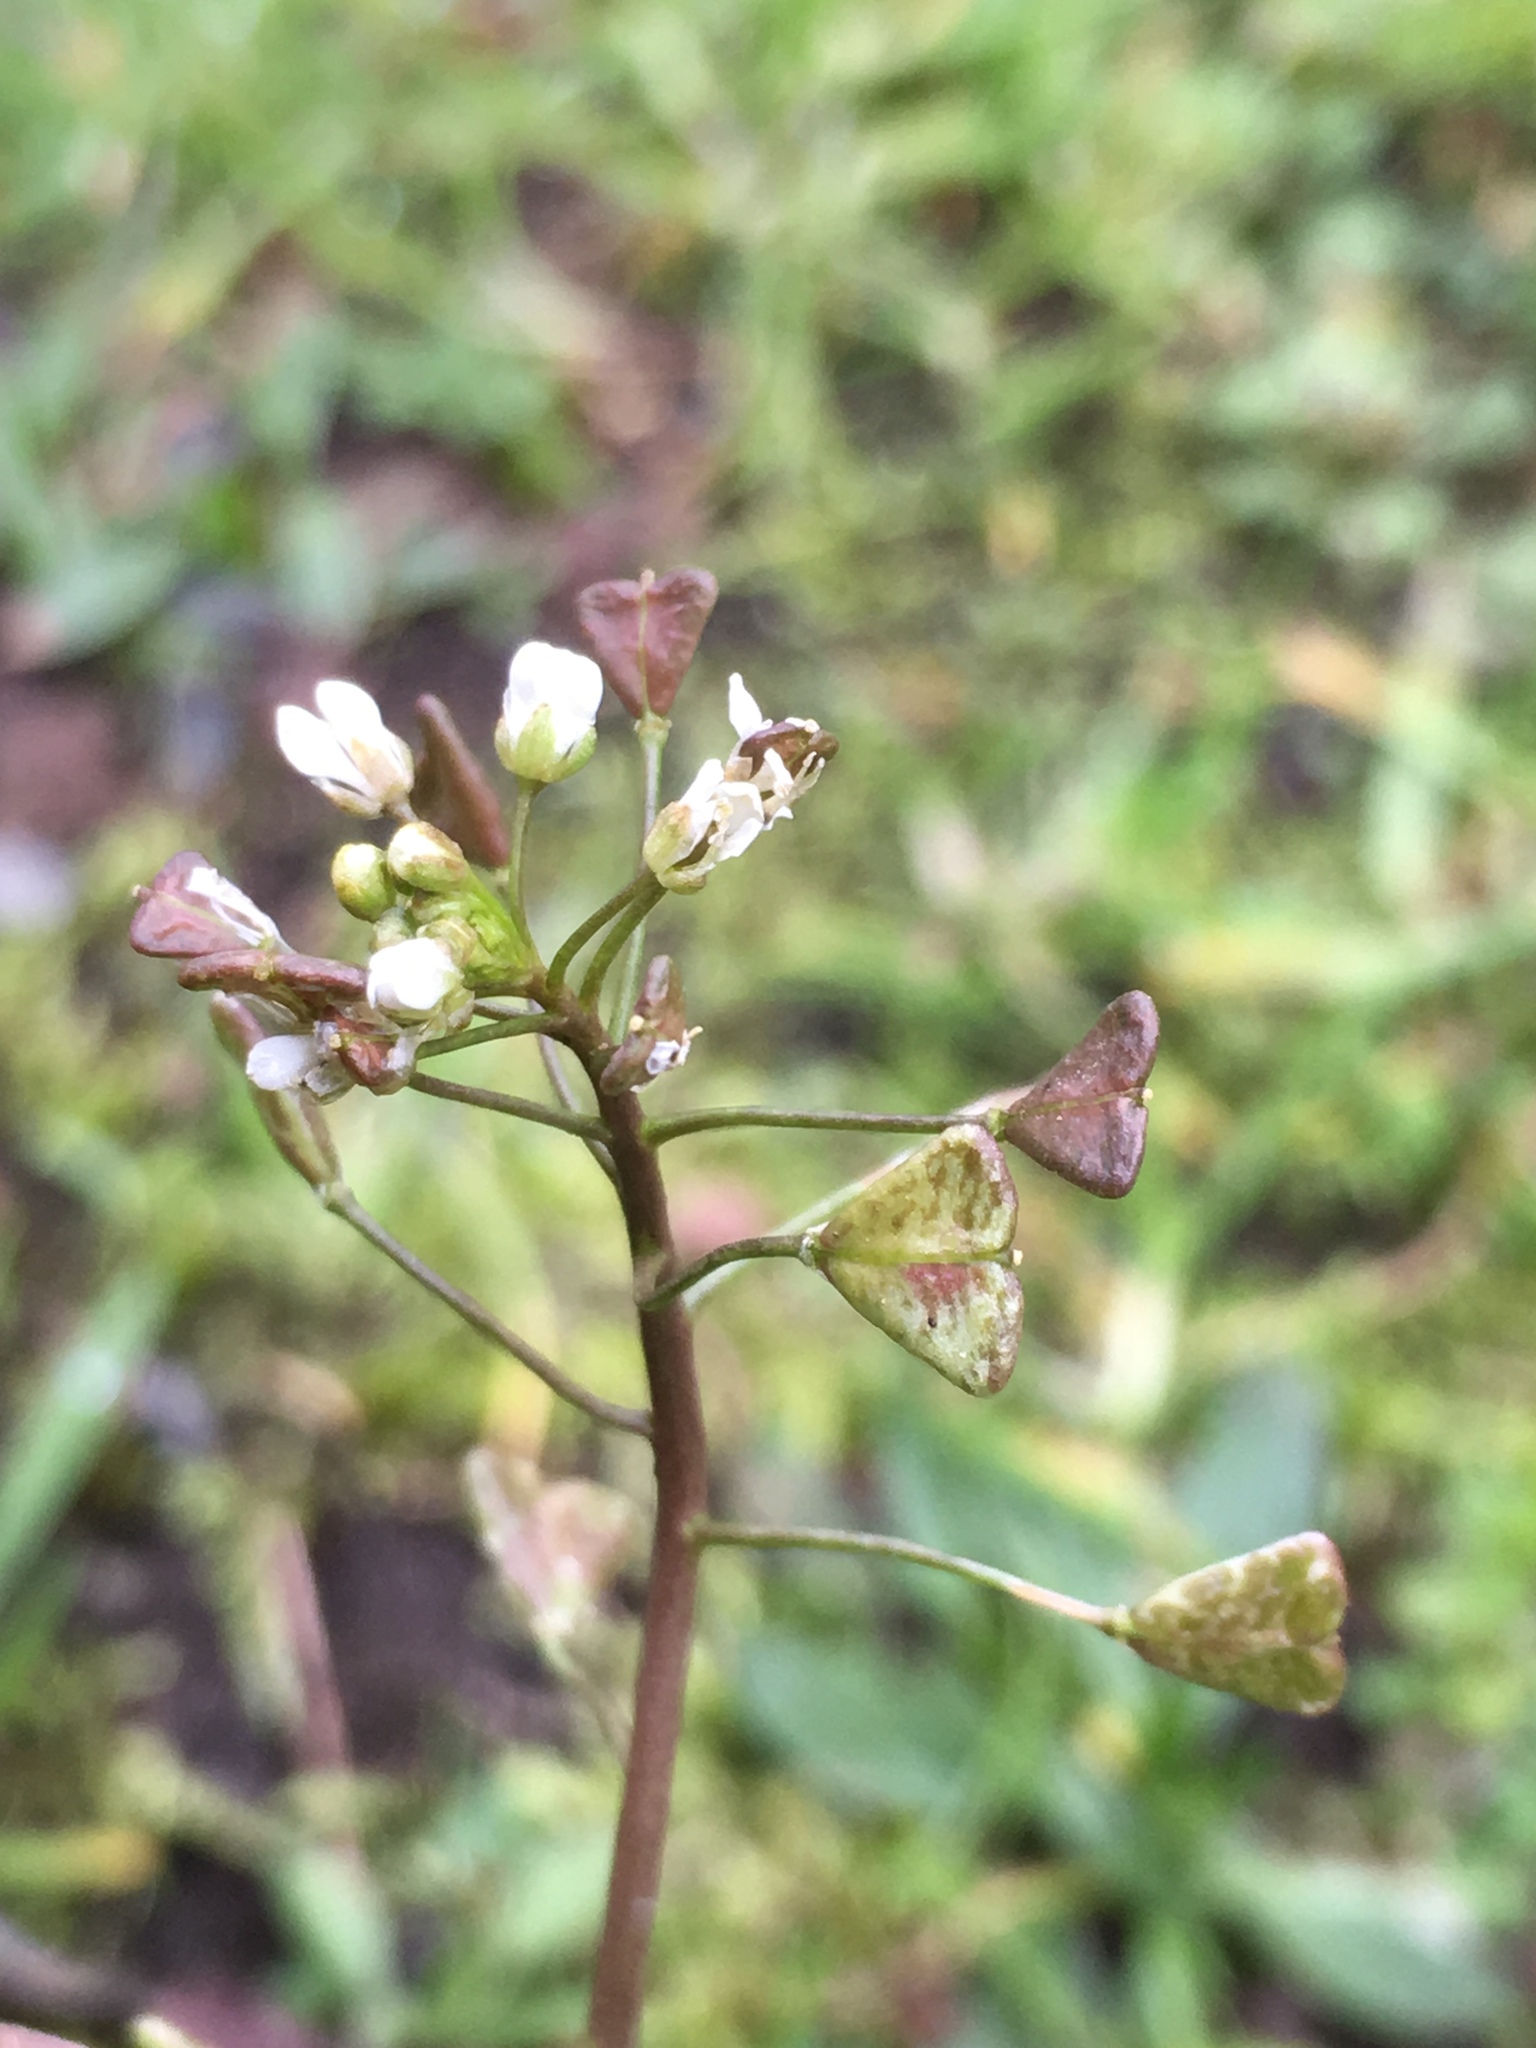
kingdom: Plantae
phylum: Tracheophyta
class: Magnoliopsida
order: Brassicales
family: Brassicaceae
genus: Capsella
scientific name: Capsella bursa-pastoris
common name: Shepherd's purse
